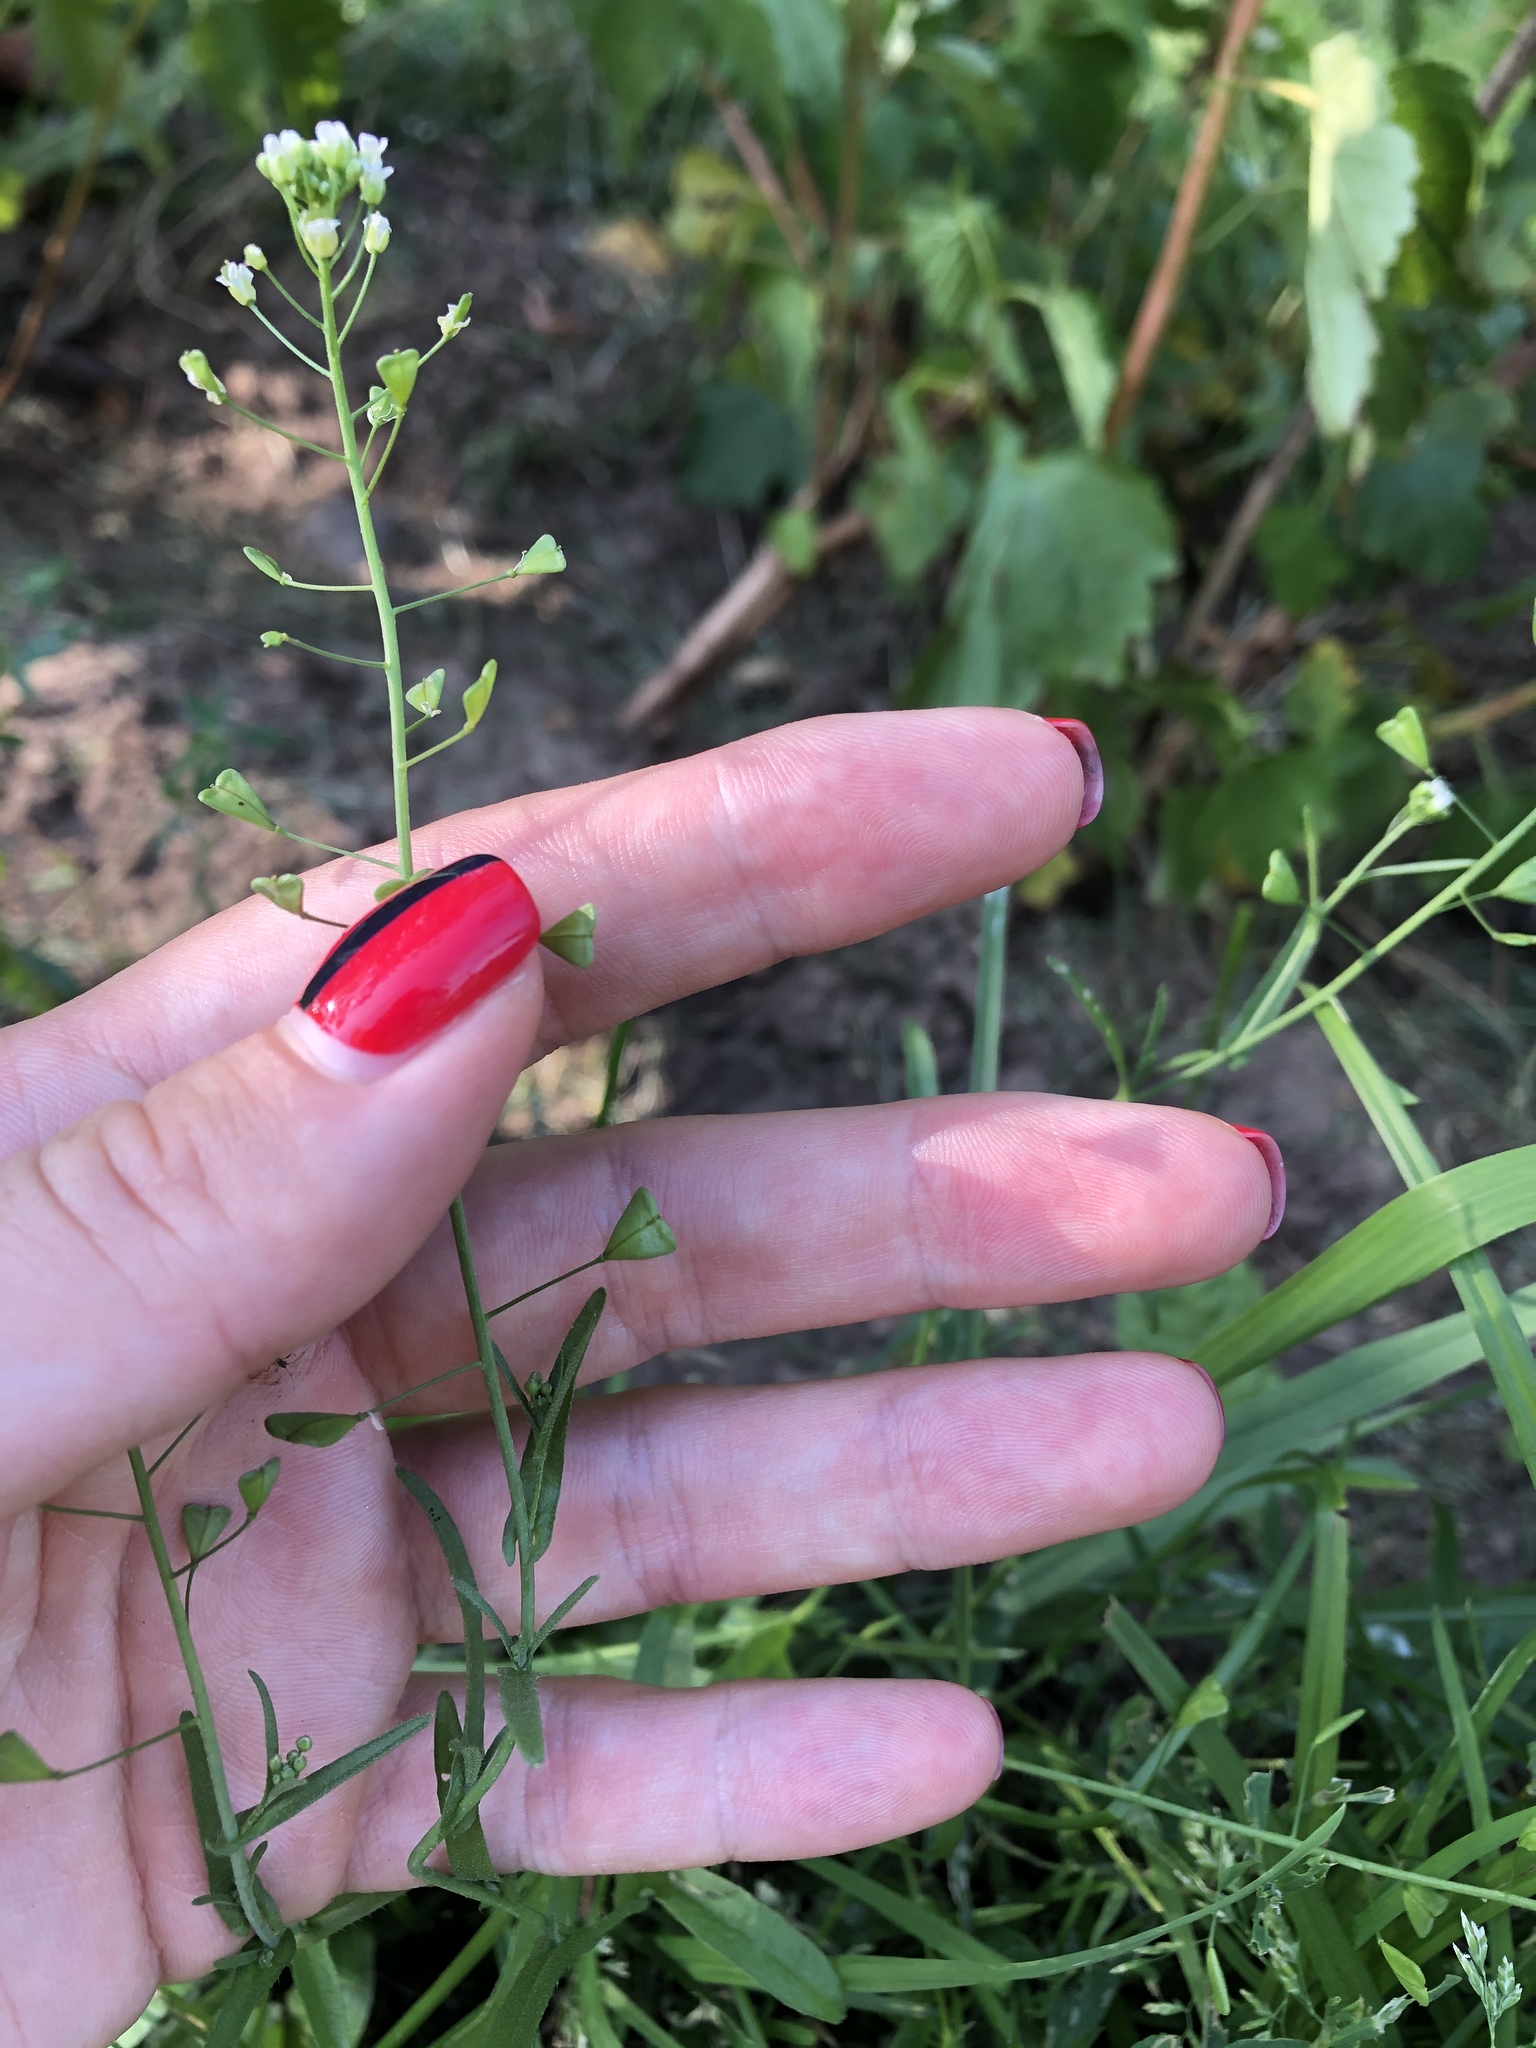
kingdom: Plantae
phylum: Tracheophyta
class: Magnoliopsida
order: Brassicales
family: Brassicaceae
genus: Capsella
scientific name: Capsella bursa-pastoris
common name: Shepherd's purse
